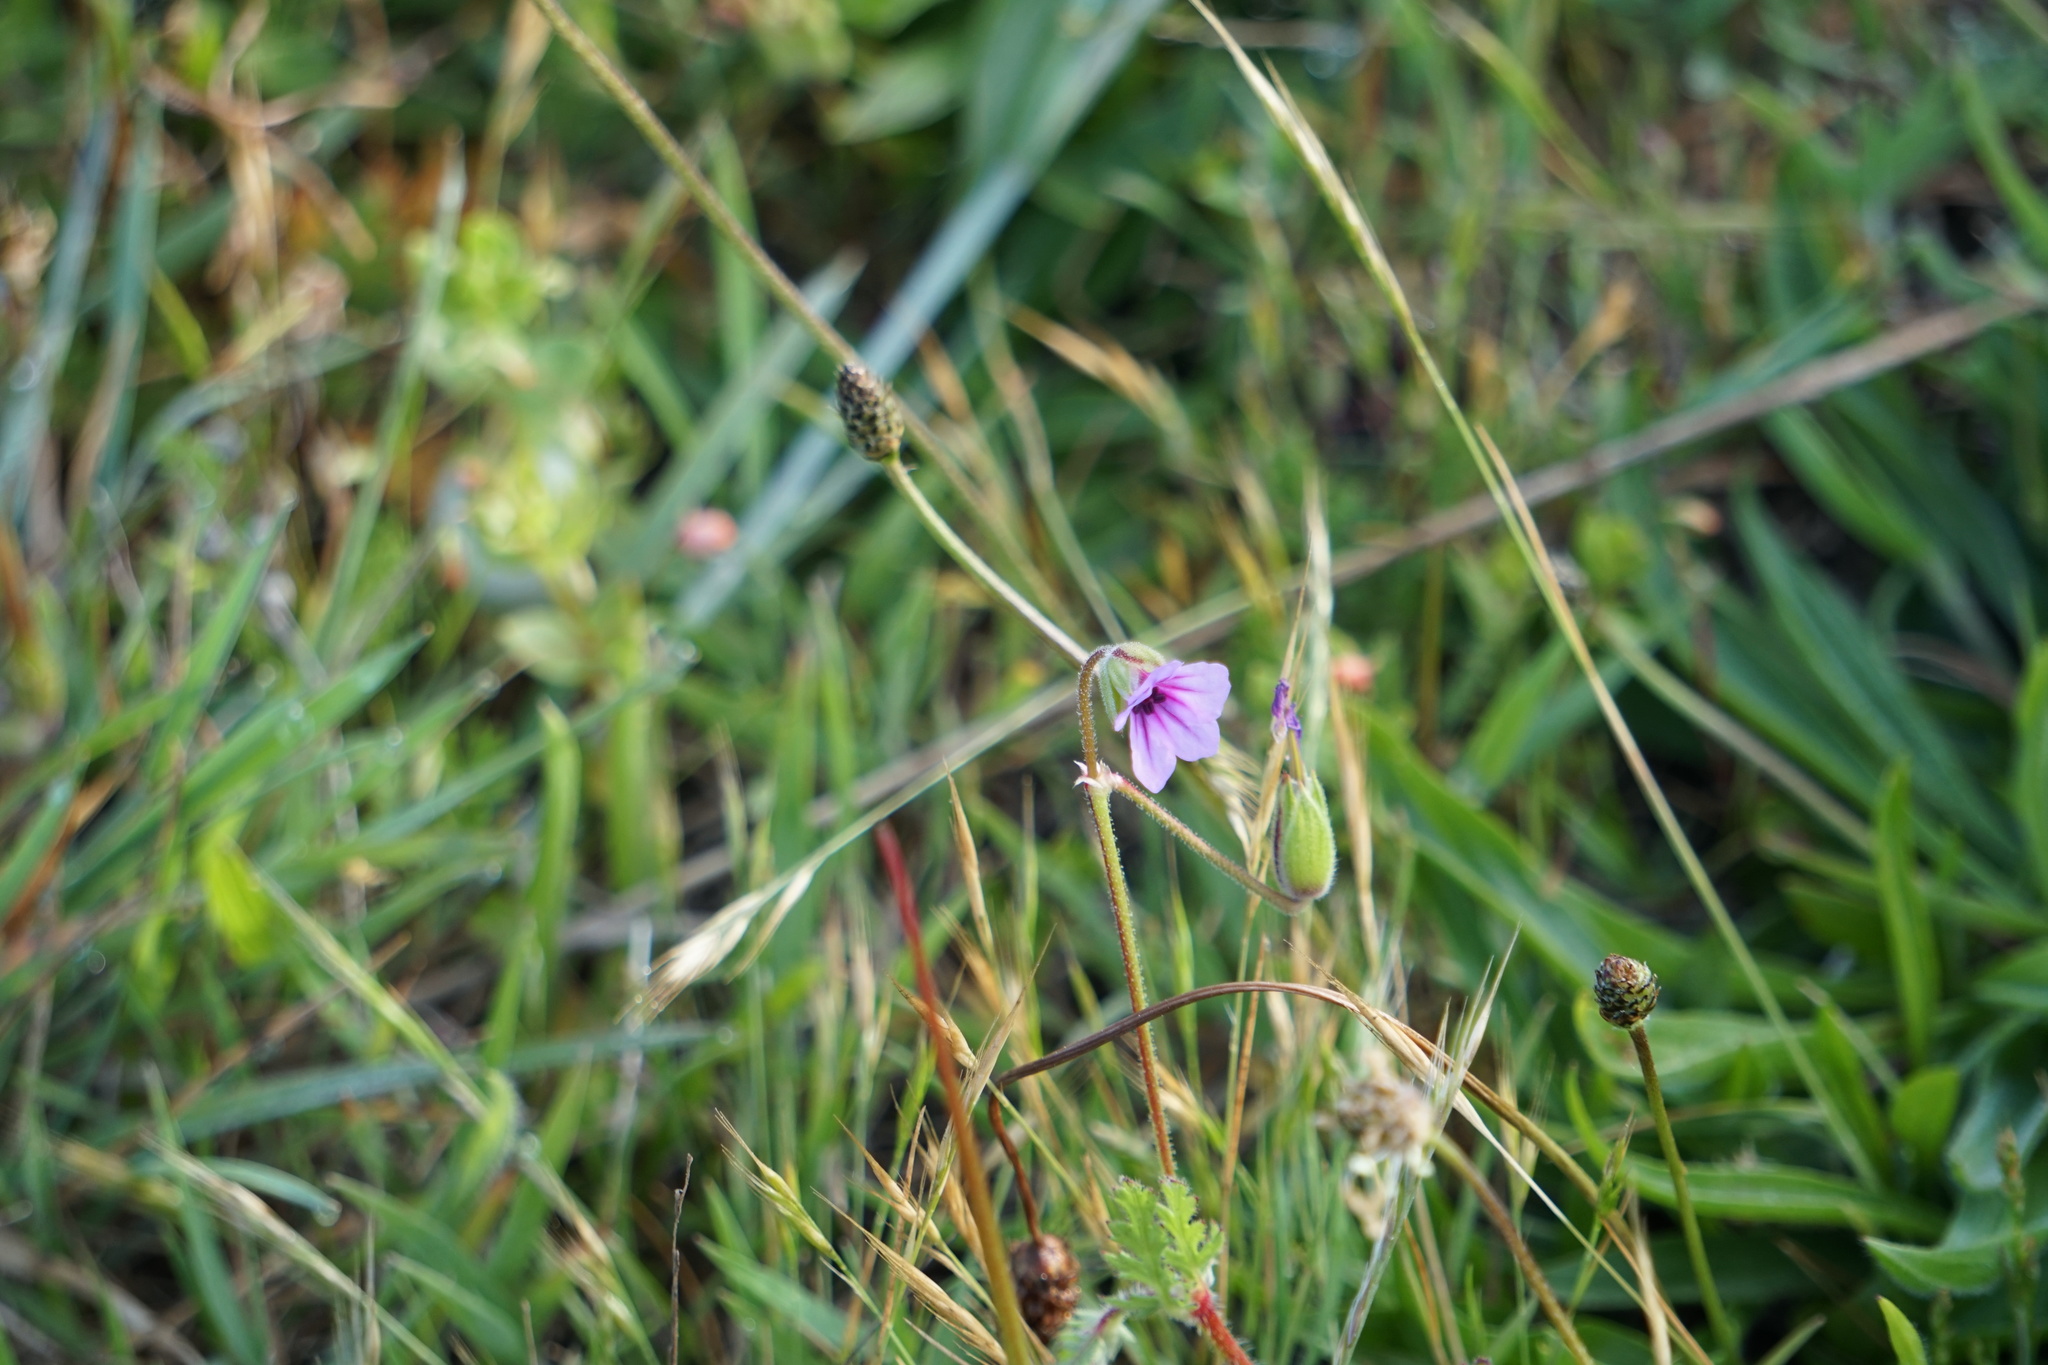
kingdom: Plantae
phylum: Tracheophyta
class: Magnoliopsida
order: Geraniales
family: Geraniaceae
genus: Erodium
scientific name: Erodium botrys
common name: Mediterranean stork's-bill
